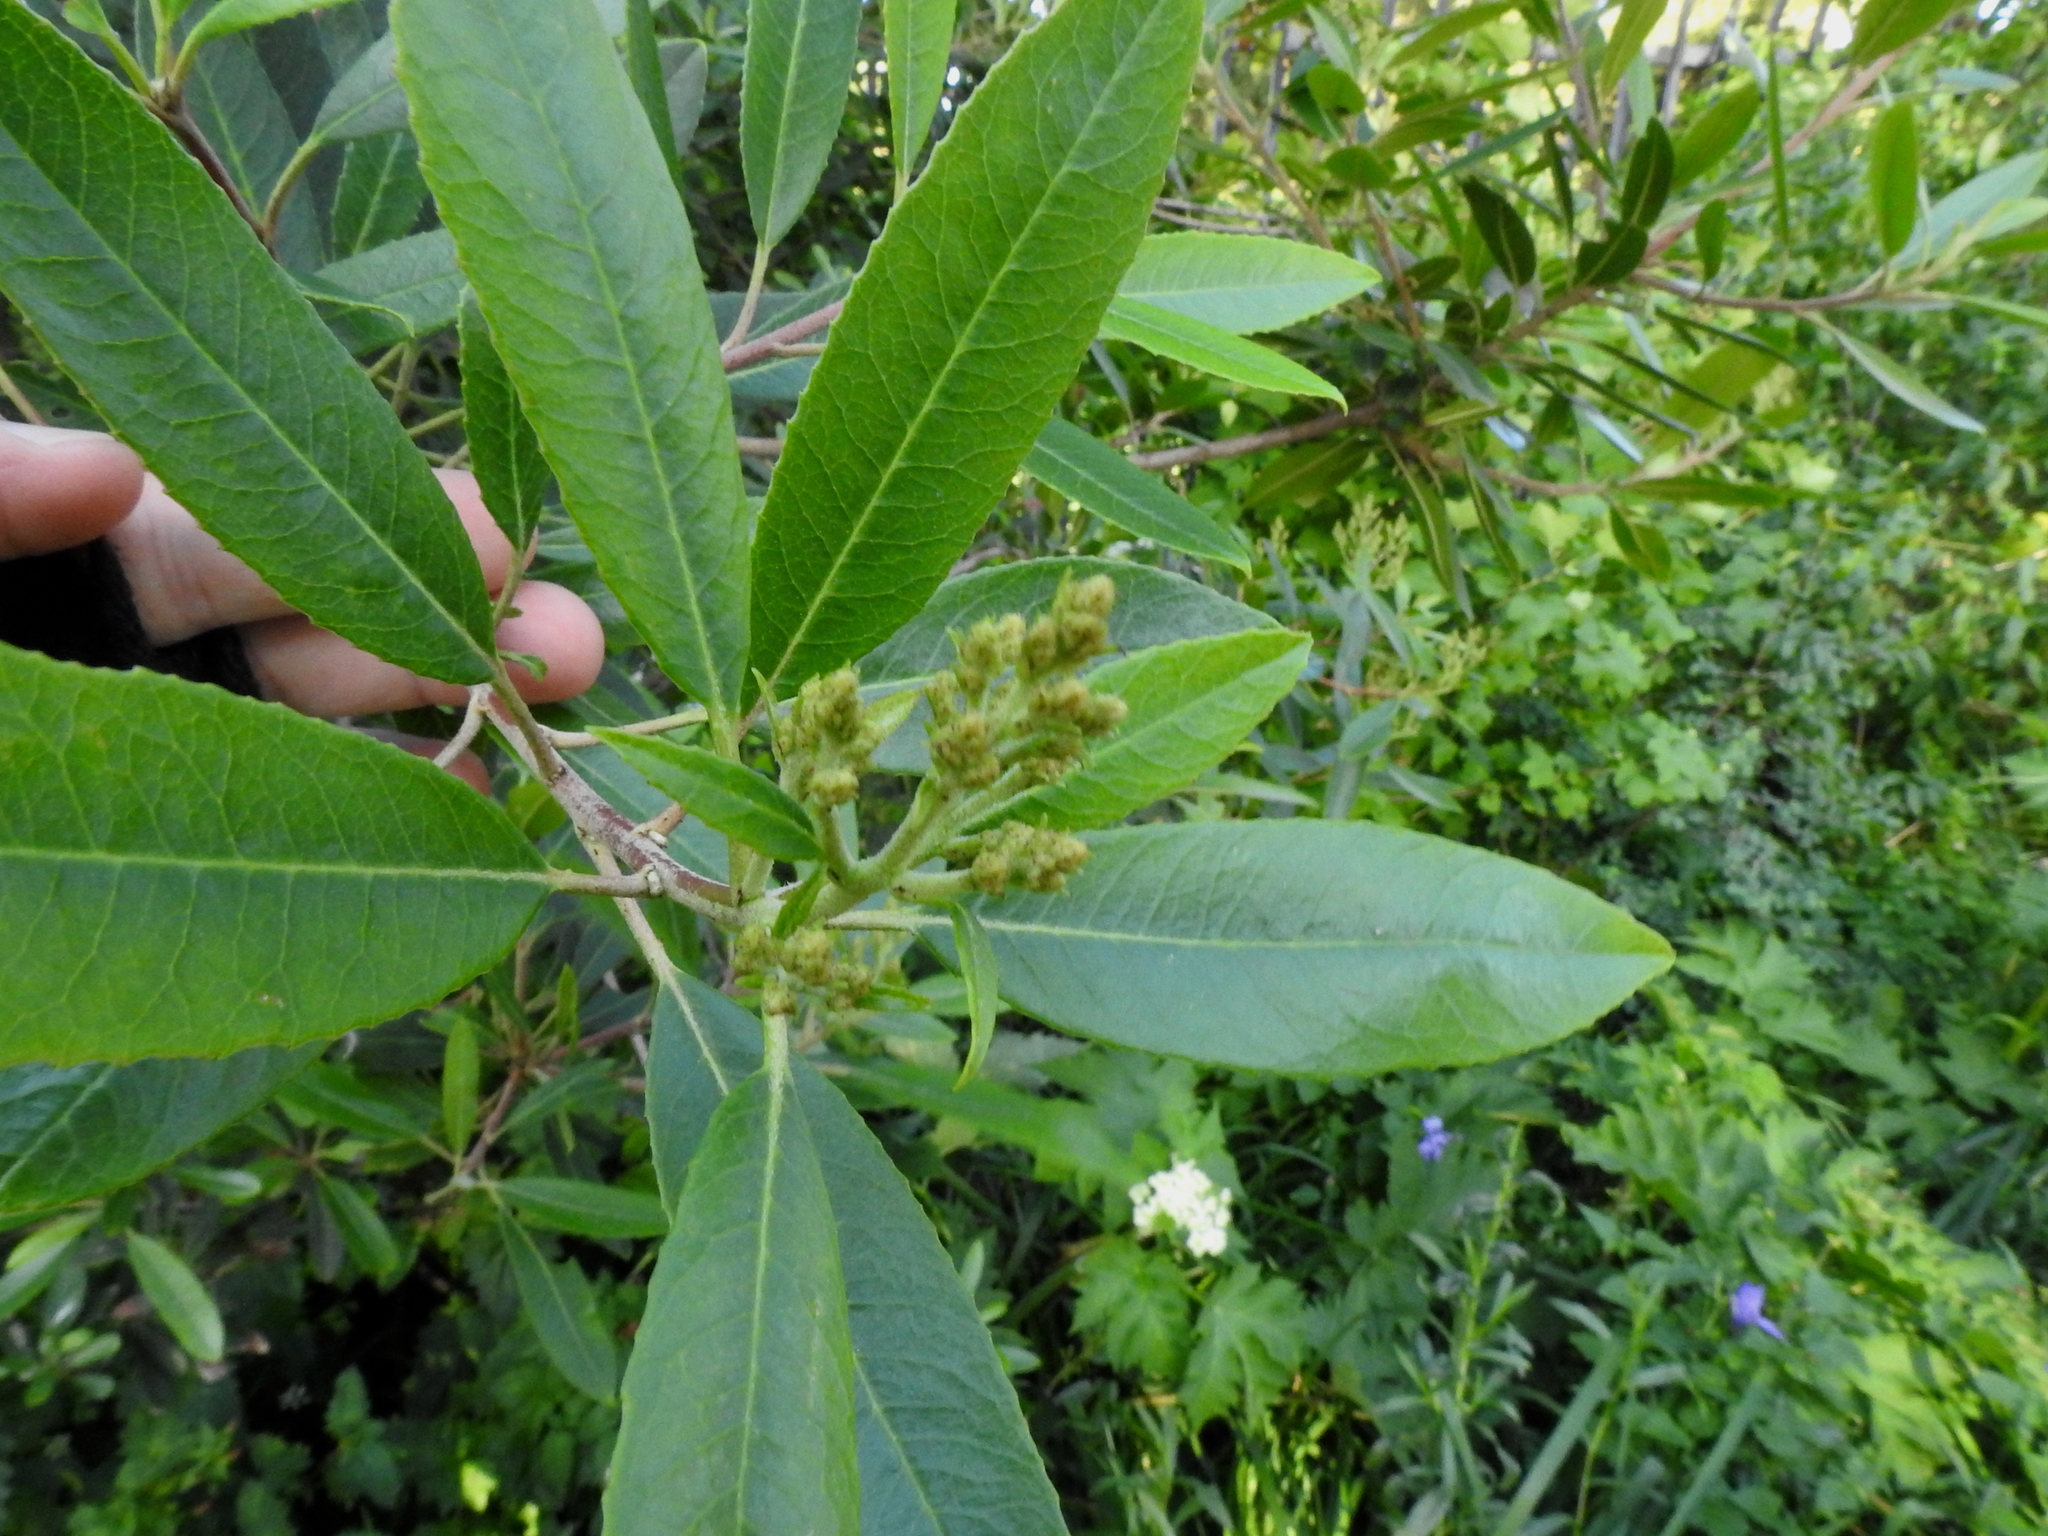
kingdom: Plantae
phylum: Tracheophyta
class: Magnoliopsida
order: Rosales
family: Rosaceae
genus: Heteromeles
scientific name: Heteromeles arbutifolia
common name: California-holly
